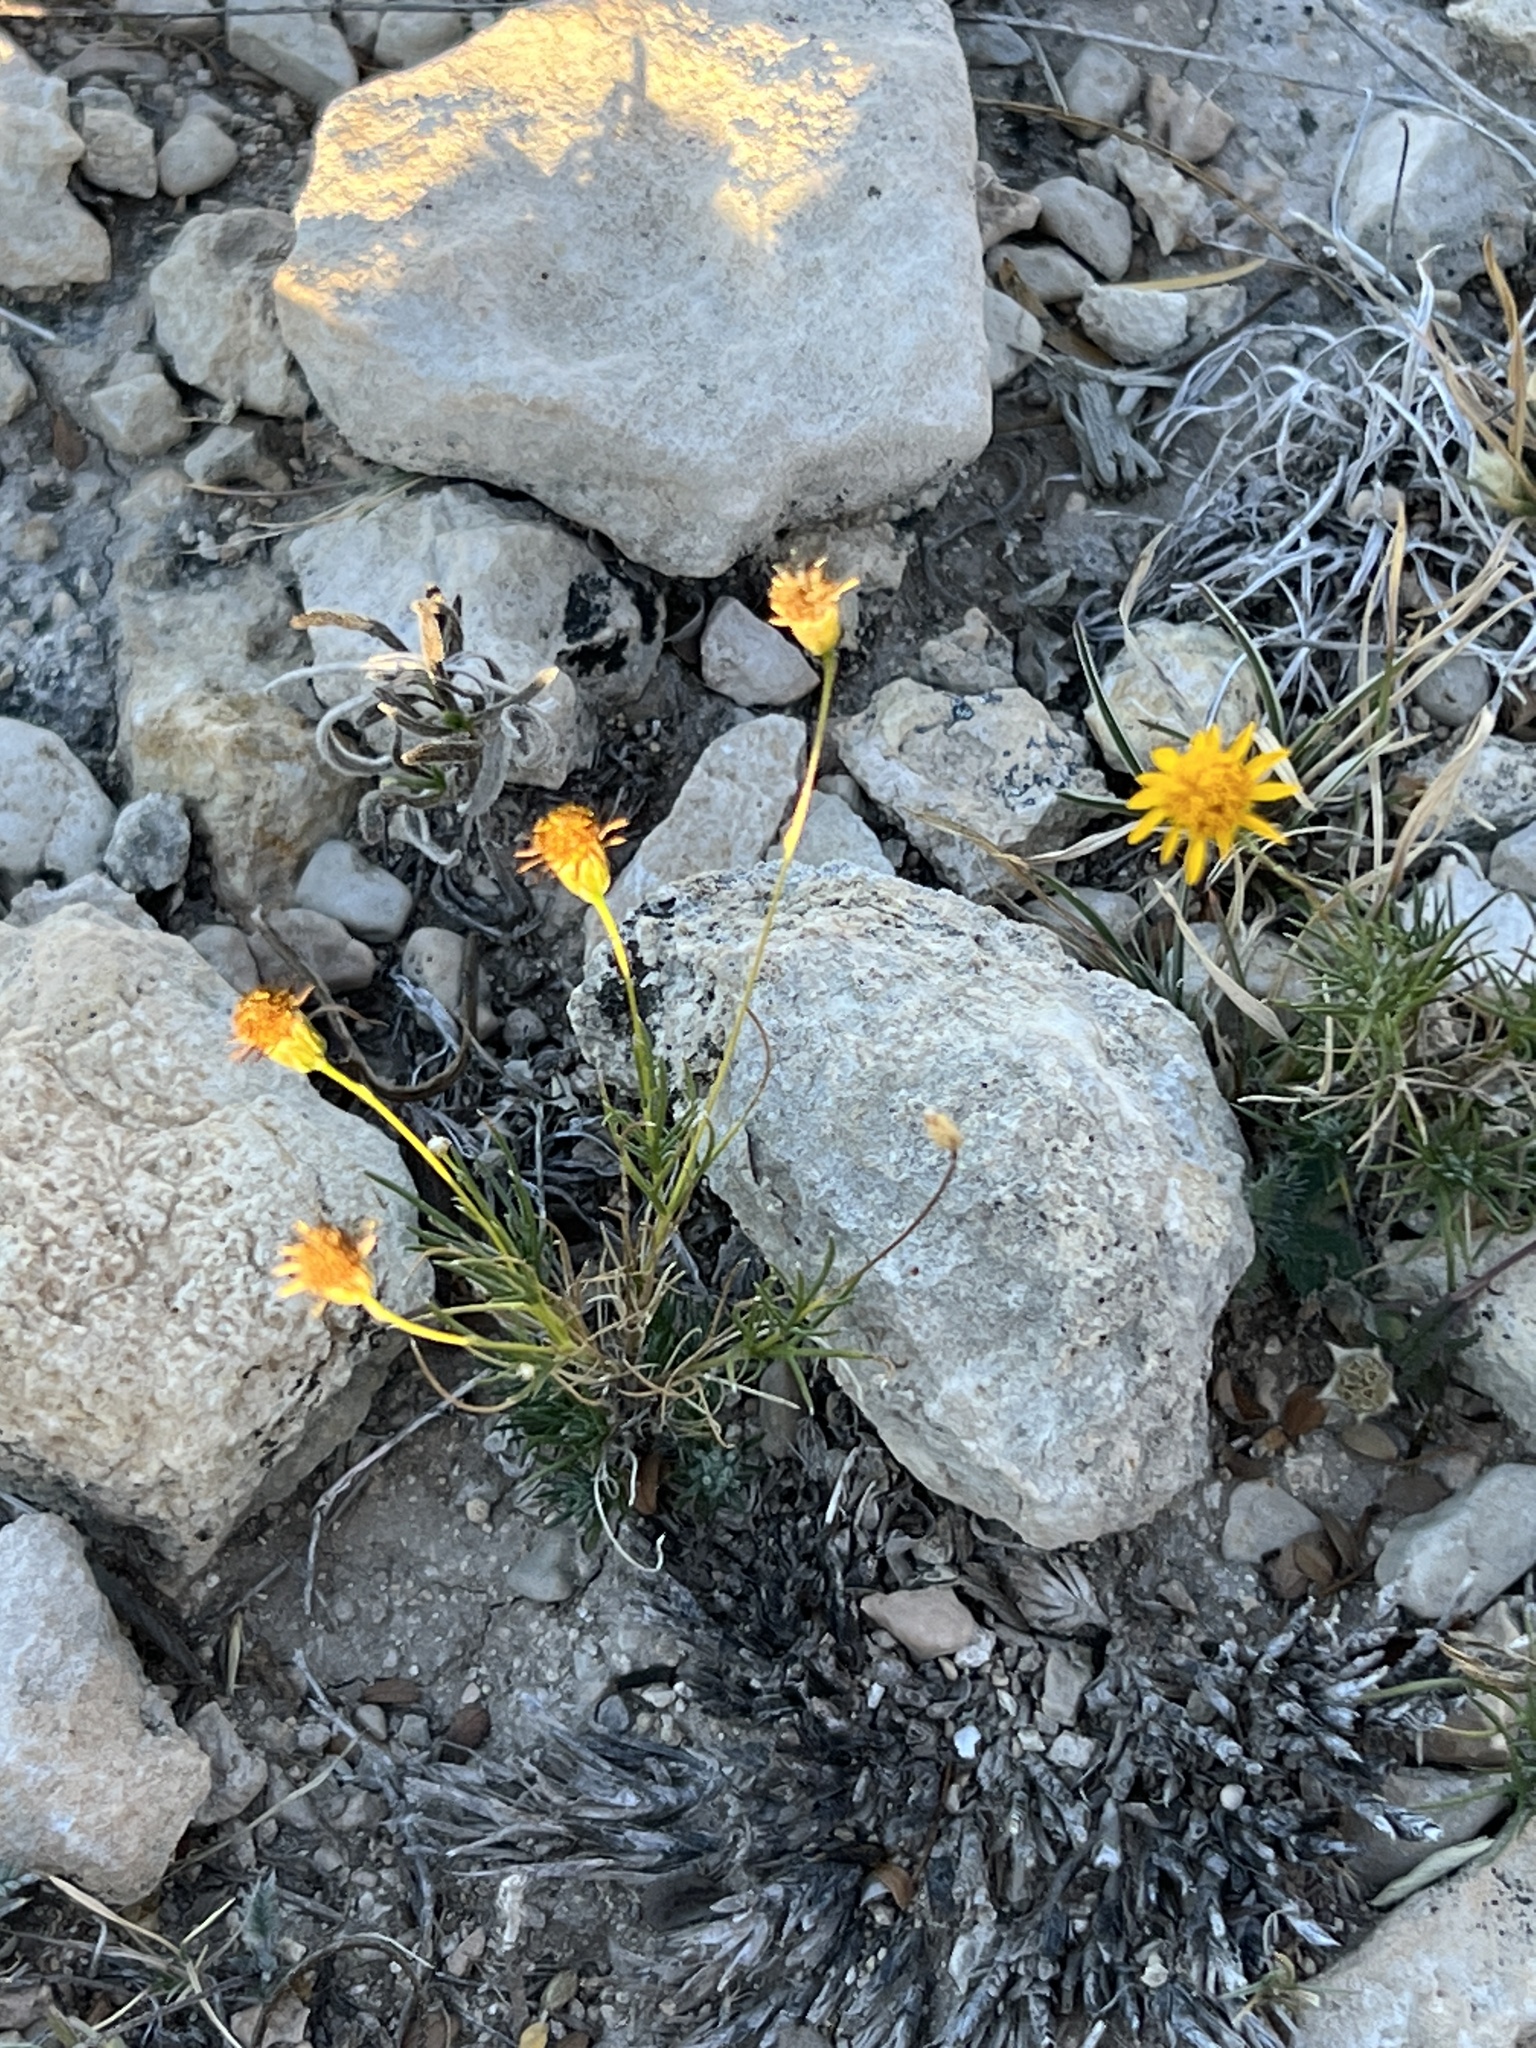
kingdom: Plantae
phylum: Tracheophyta
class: Magnoliopsida
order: Asterales
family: Asteraceae
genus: Thymophylla
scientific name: Thymophylla pentachaeta
